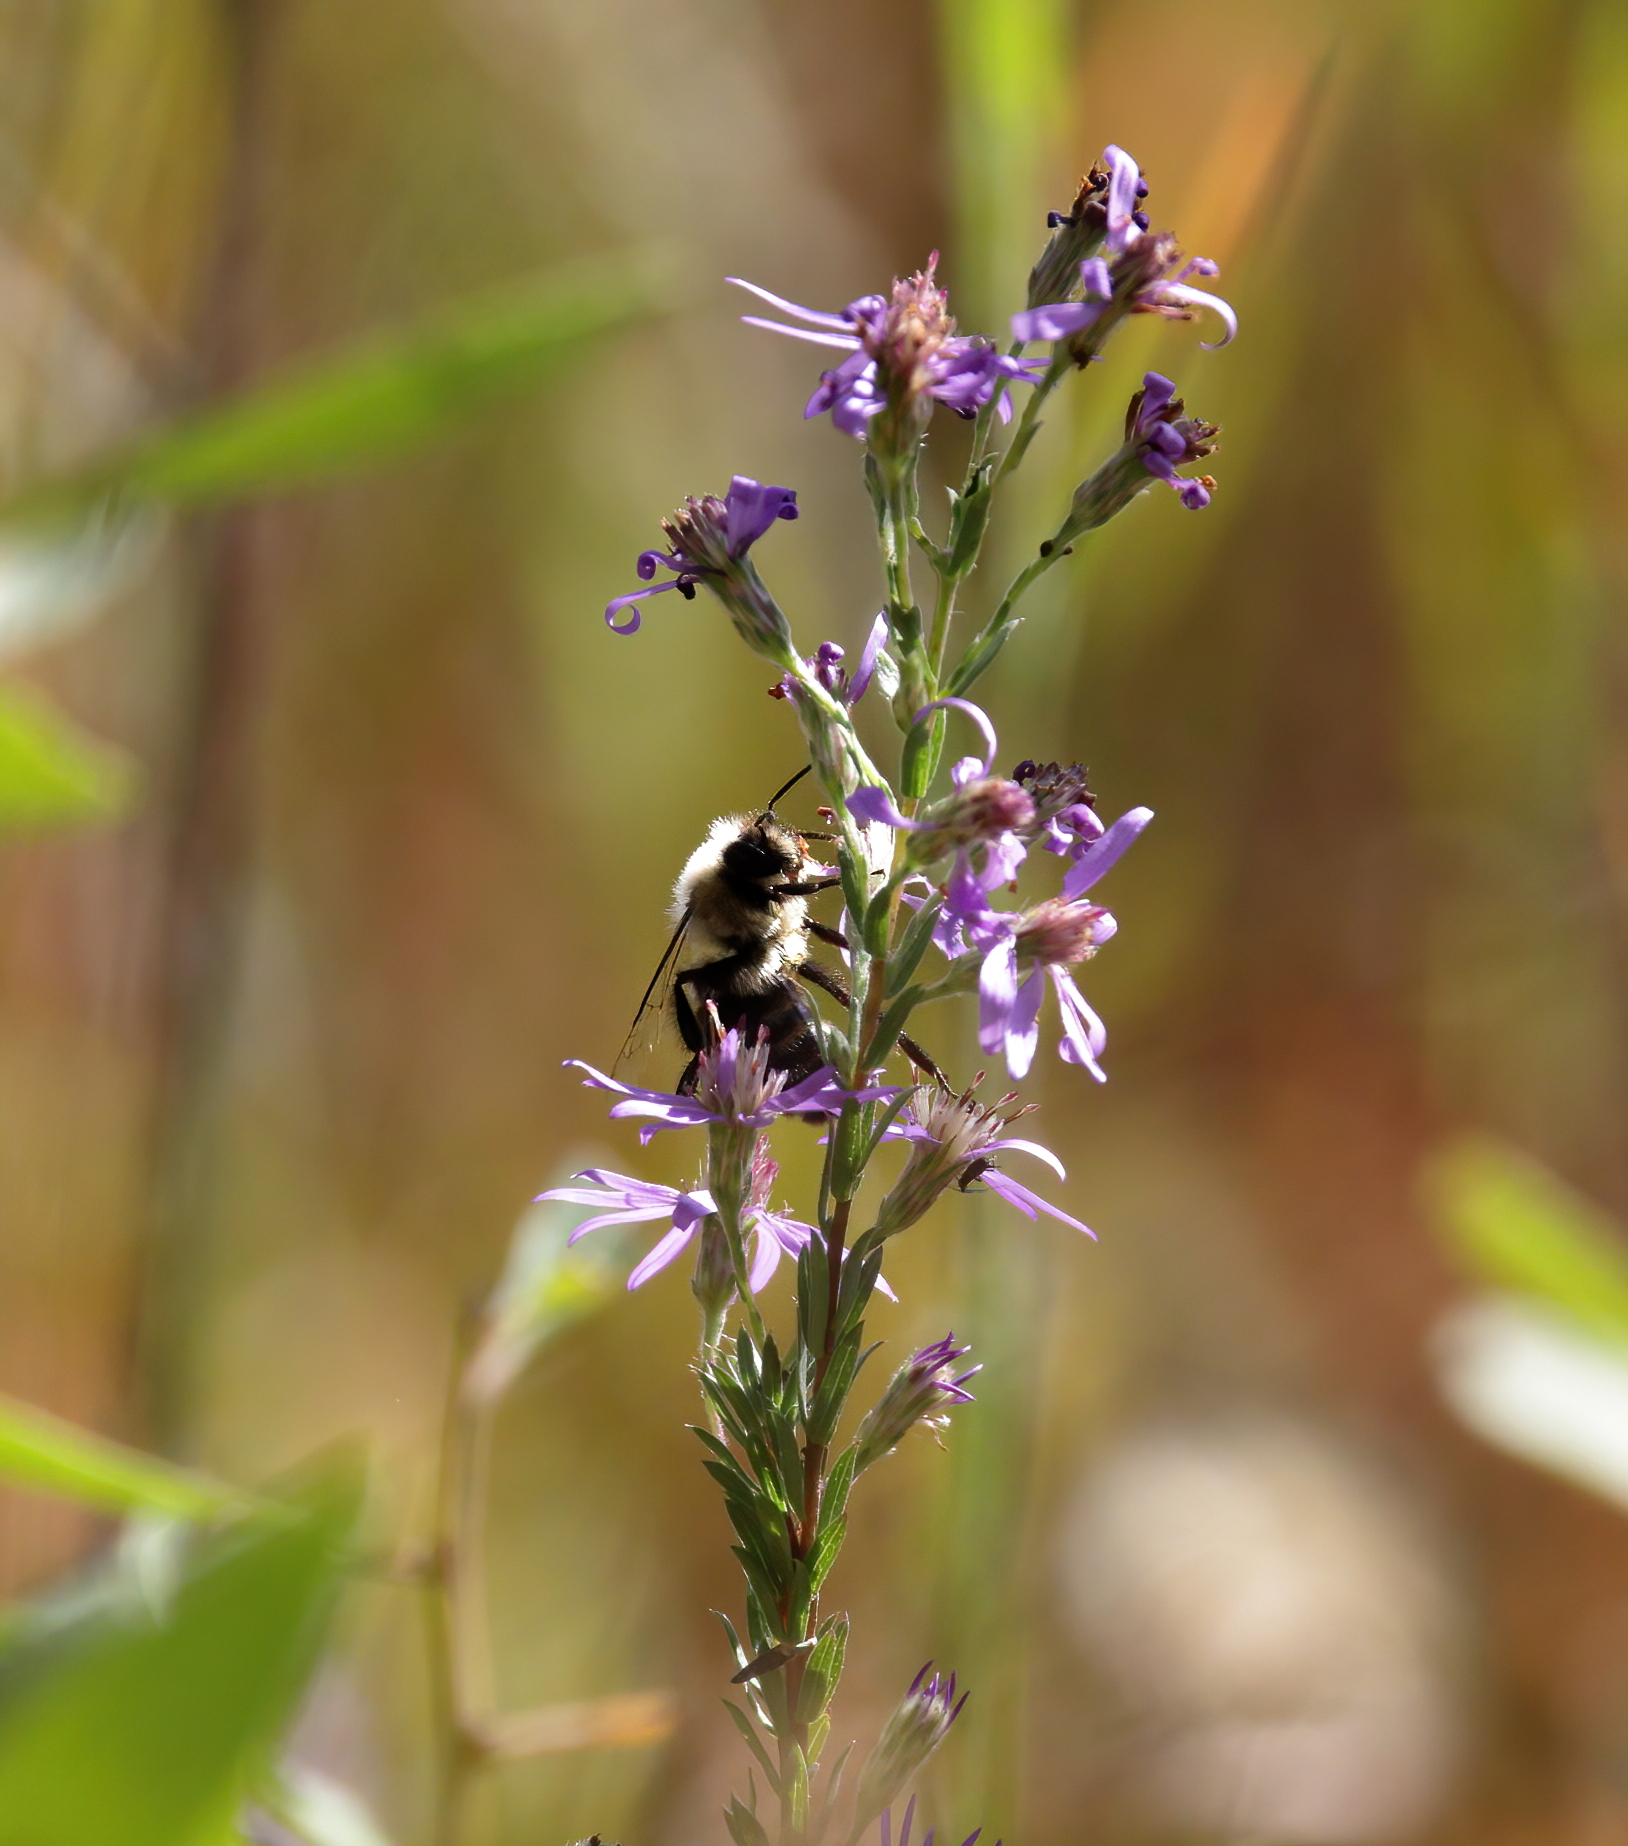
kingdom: Animalia
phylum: Arthropoda
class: Insecta
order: Hymenoptera
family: Apidae
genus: Bombus
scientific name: Bombus impatiens
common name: Common eastern bumble bee
